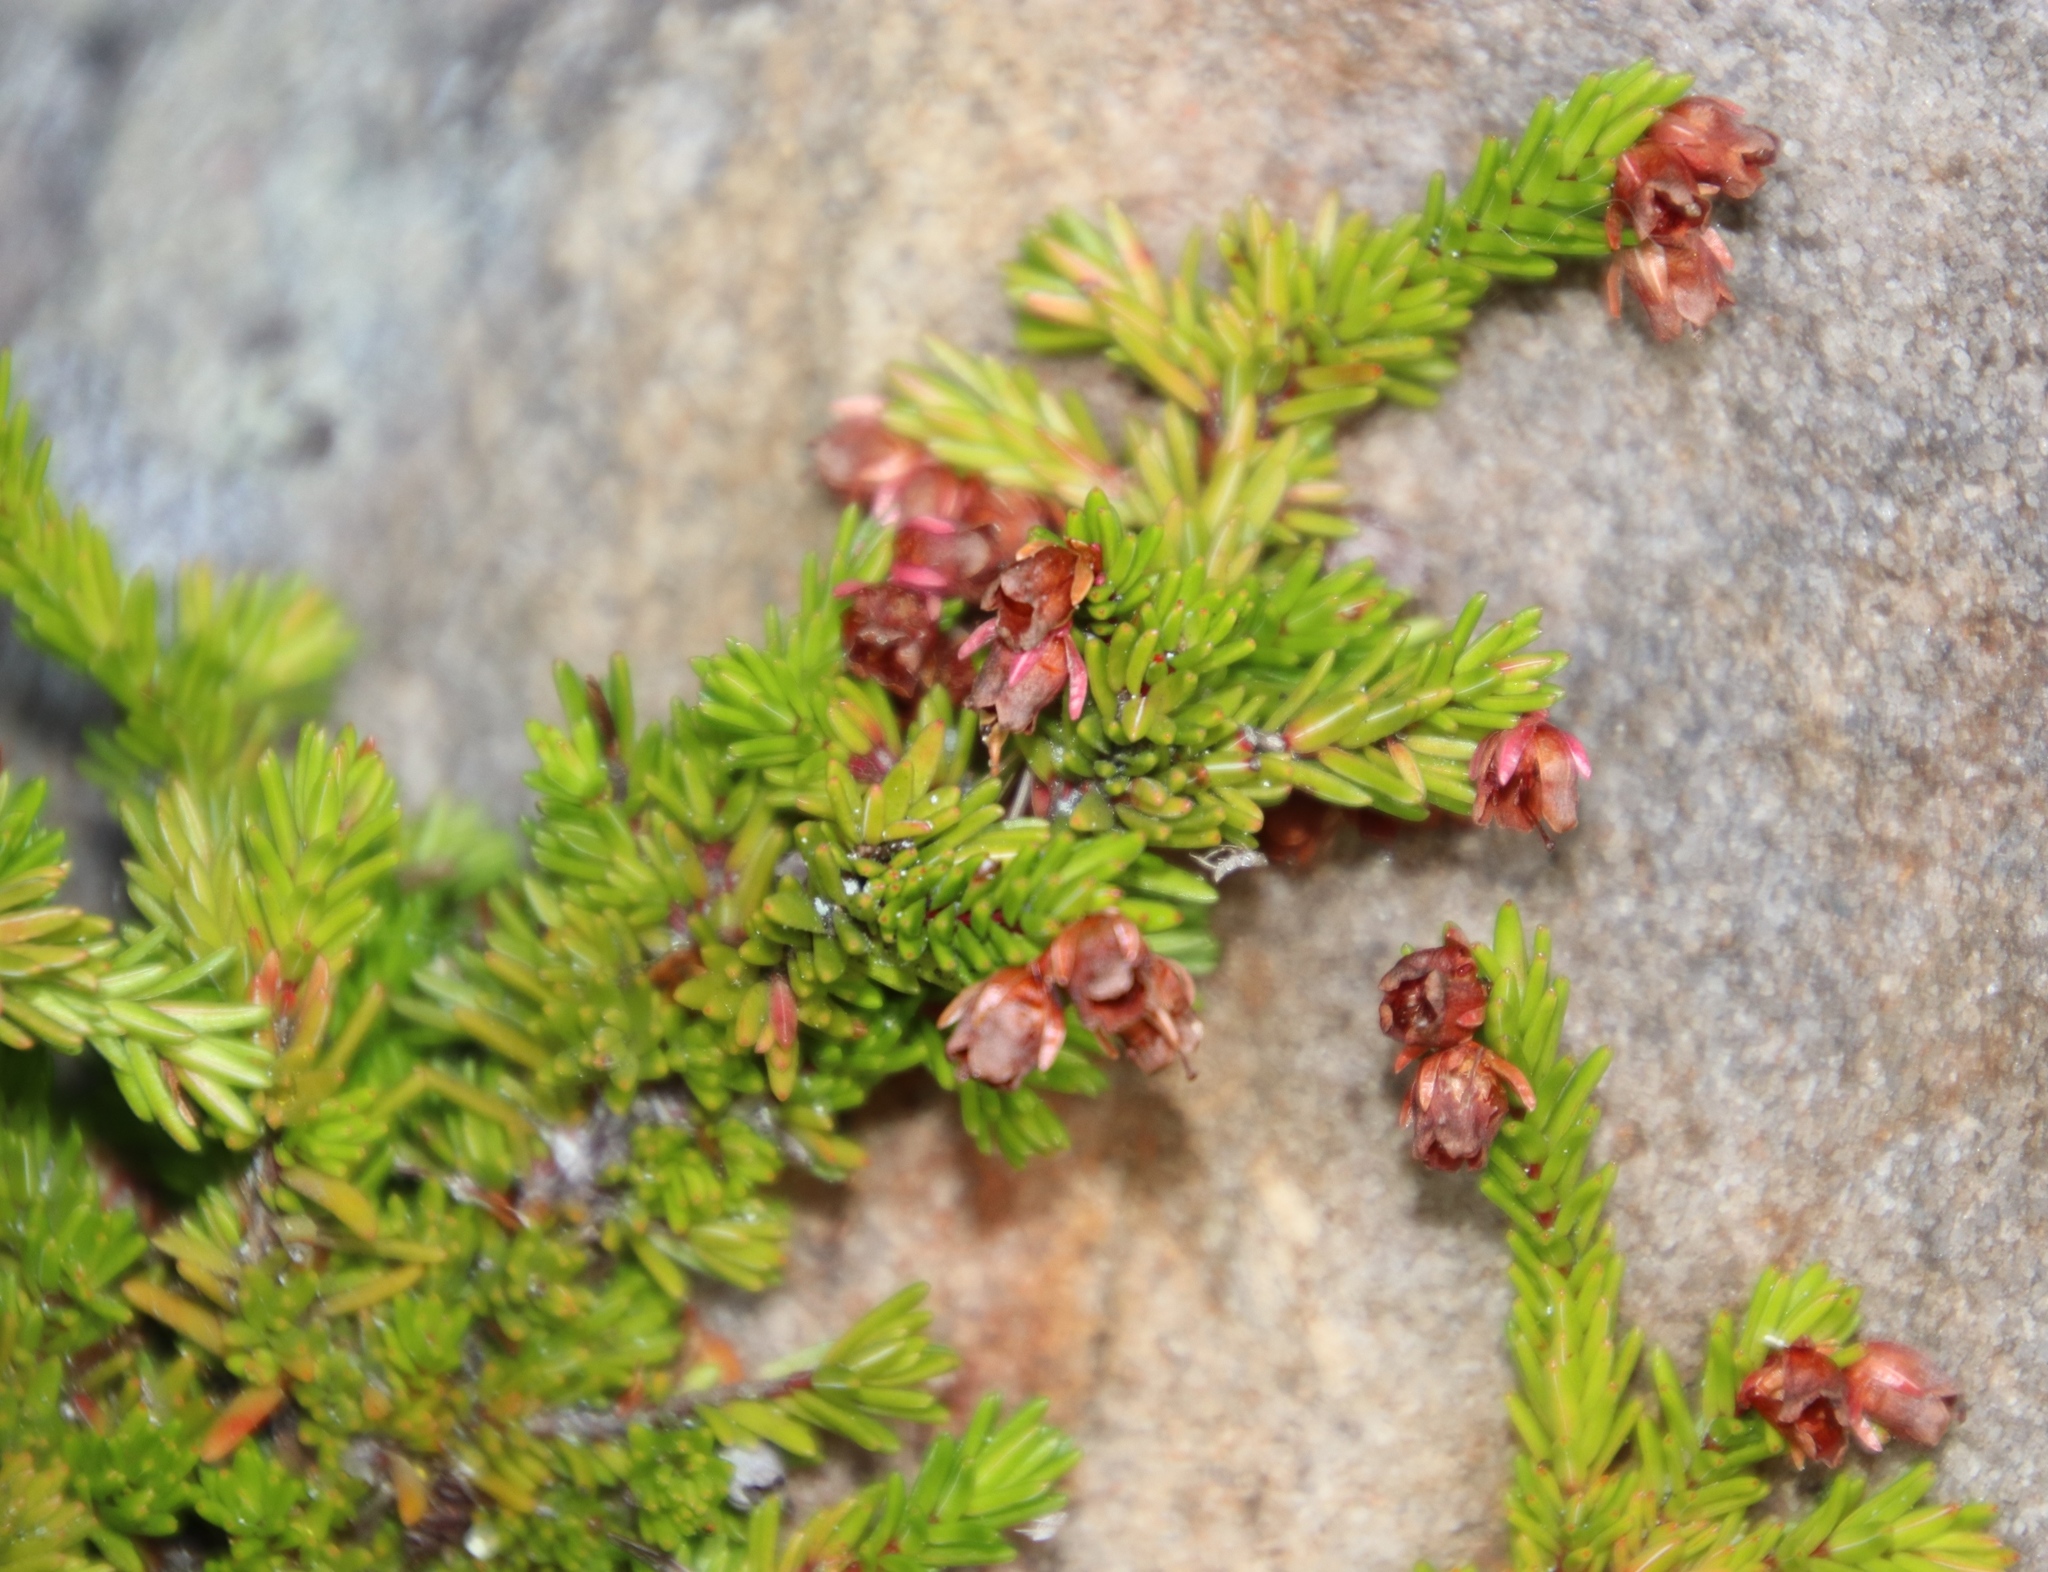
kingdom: Plantae
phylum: Tracheophyta
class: Magnoliopsida
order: Ericales
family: Ericaceae
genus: Erica
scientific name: Erica depressa
